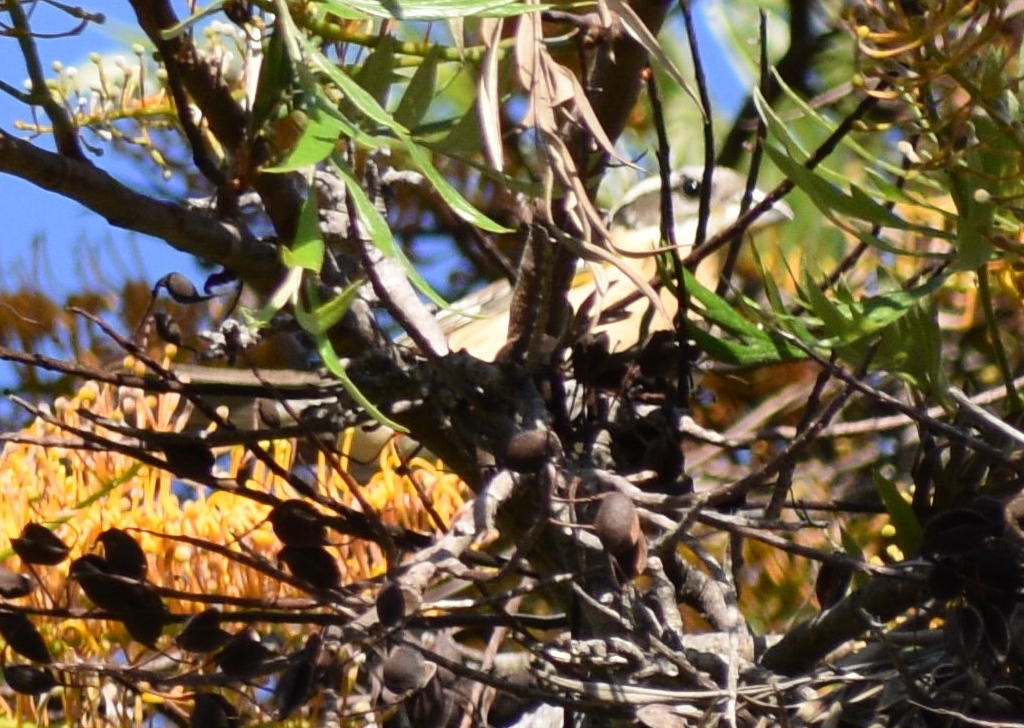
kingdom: Animalia
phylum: Chordata
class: Aves
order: Passeriformes
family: Cardinalidae
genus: Pheucticus
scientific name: Pheucticus melanocephalus
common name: Black-headed grosbeak
